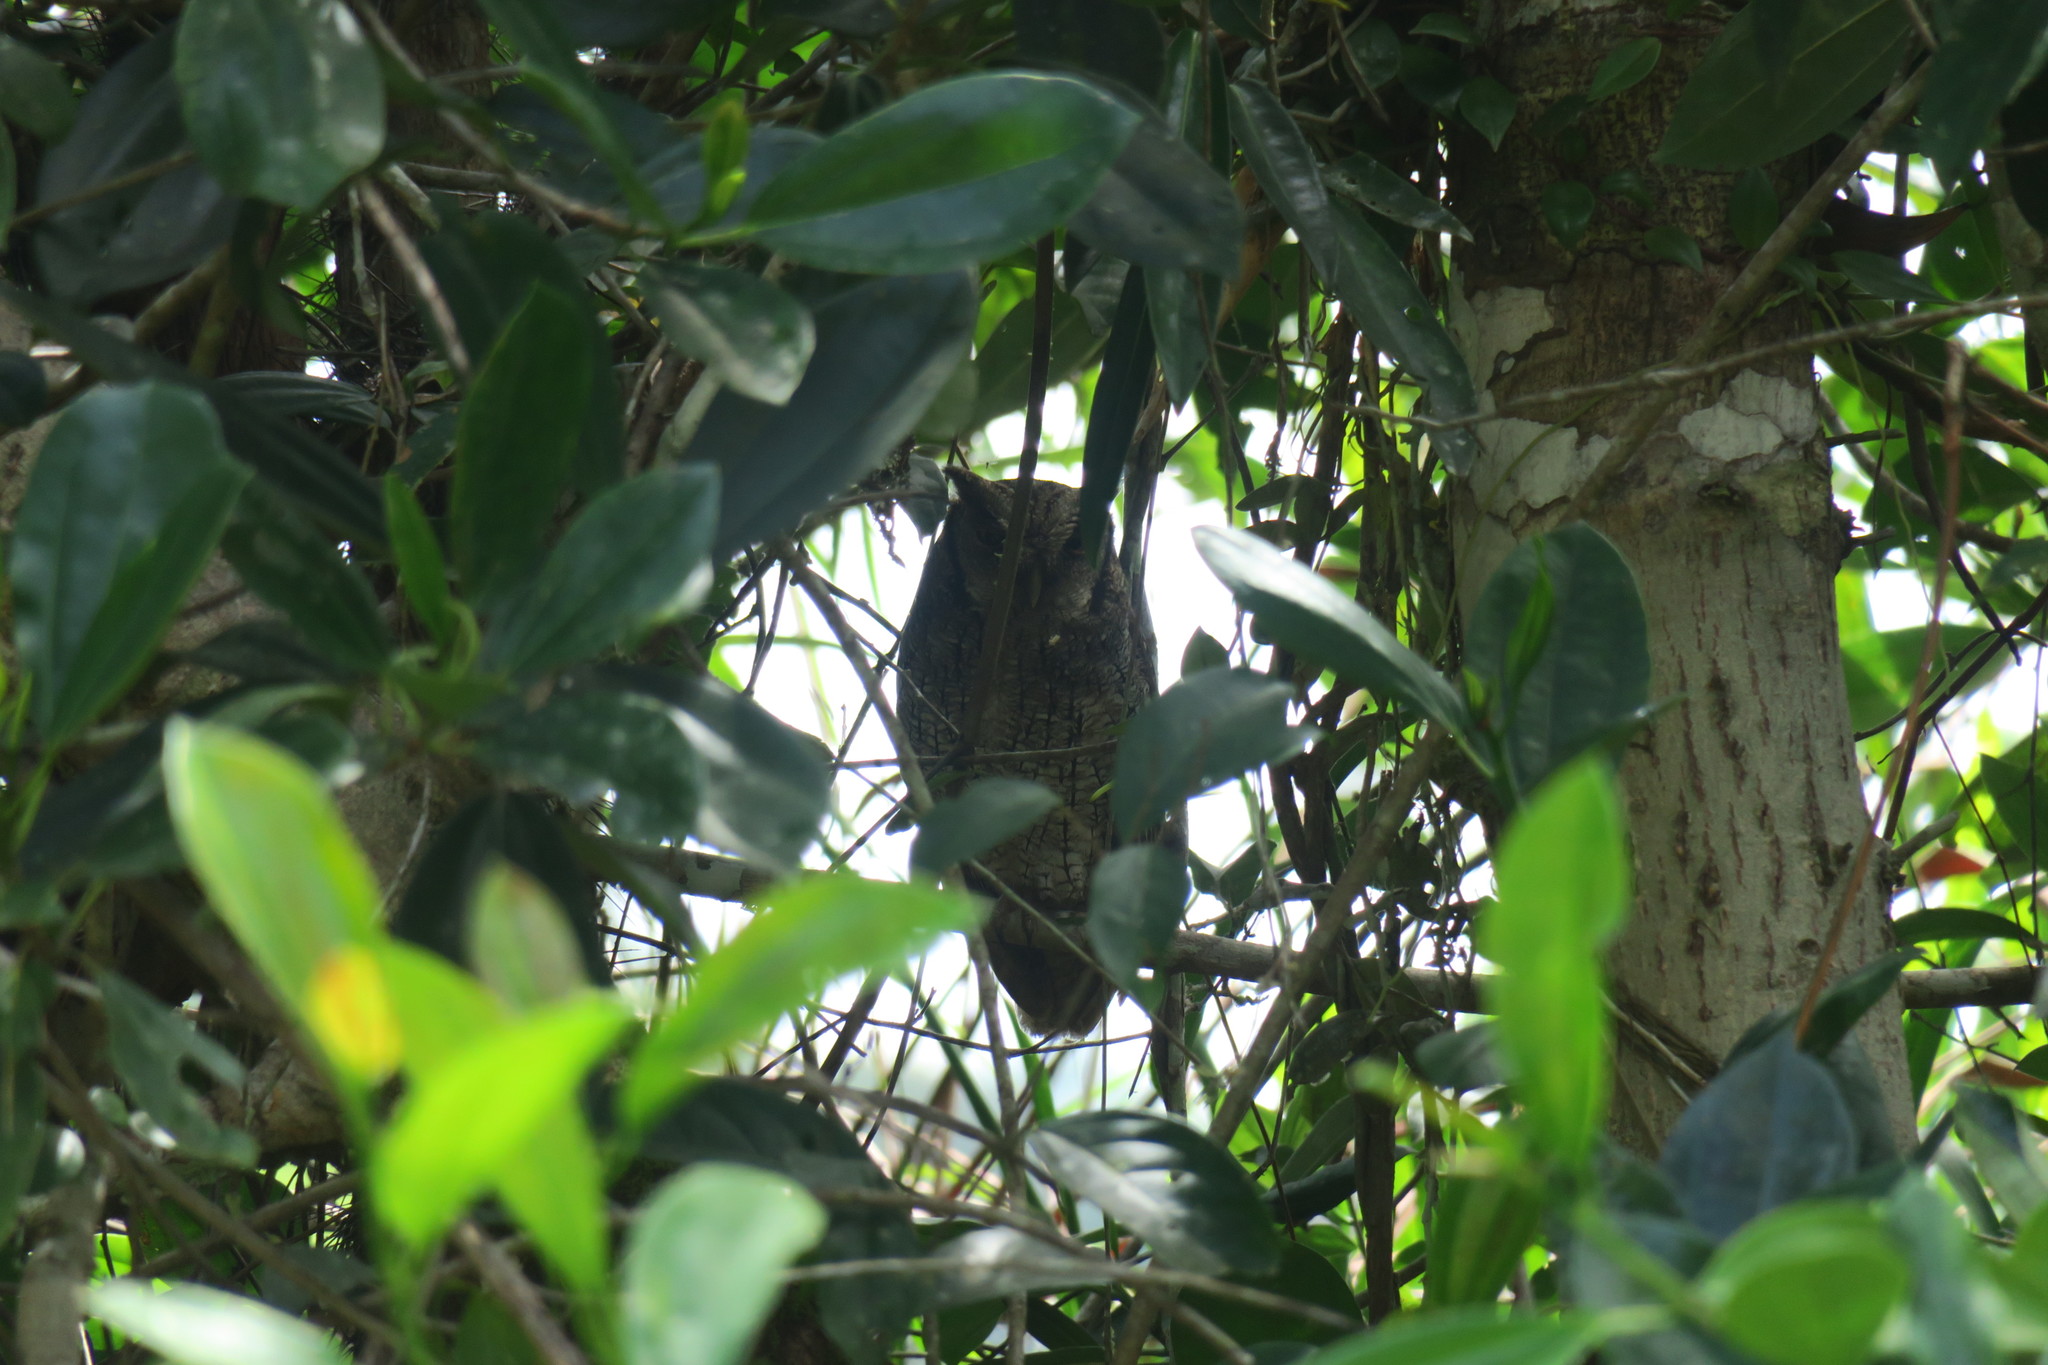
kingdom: Animalia
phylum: Chordata
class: Aves
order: Strigiformes
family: Strigidae
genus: Megascops
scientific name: Megascops choliba
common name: Tropical screech-owl
